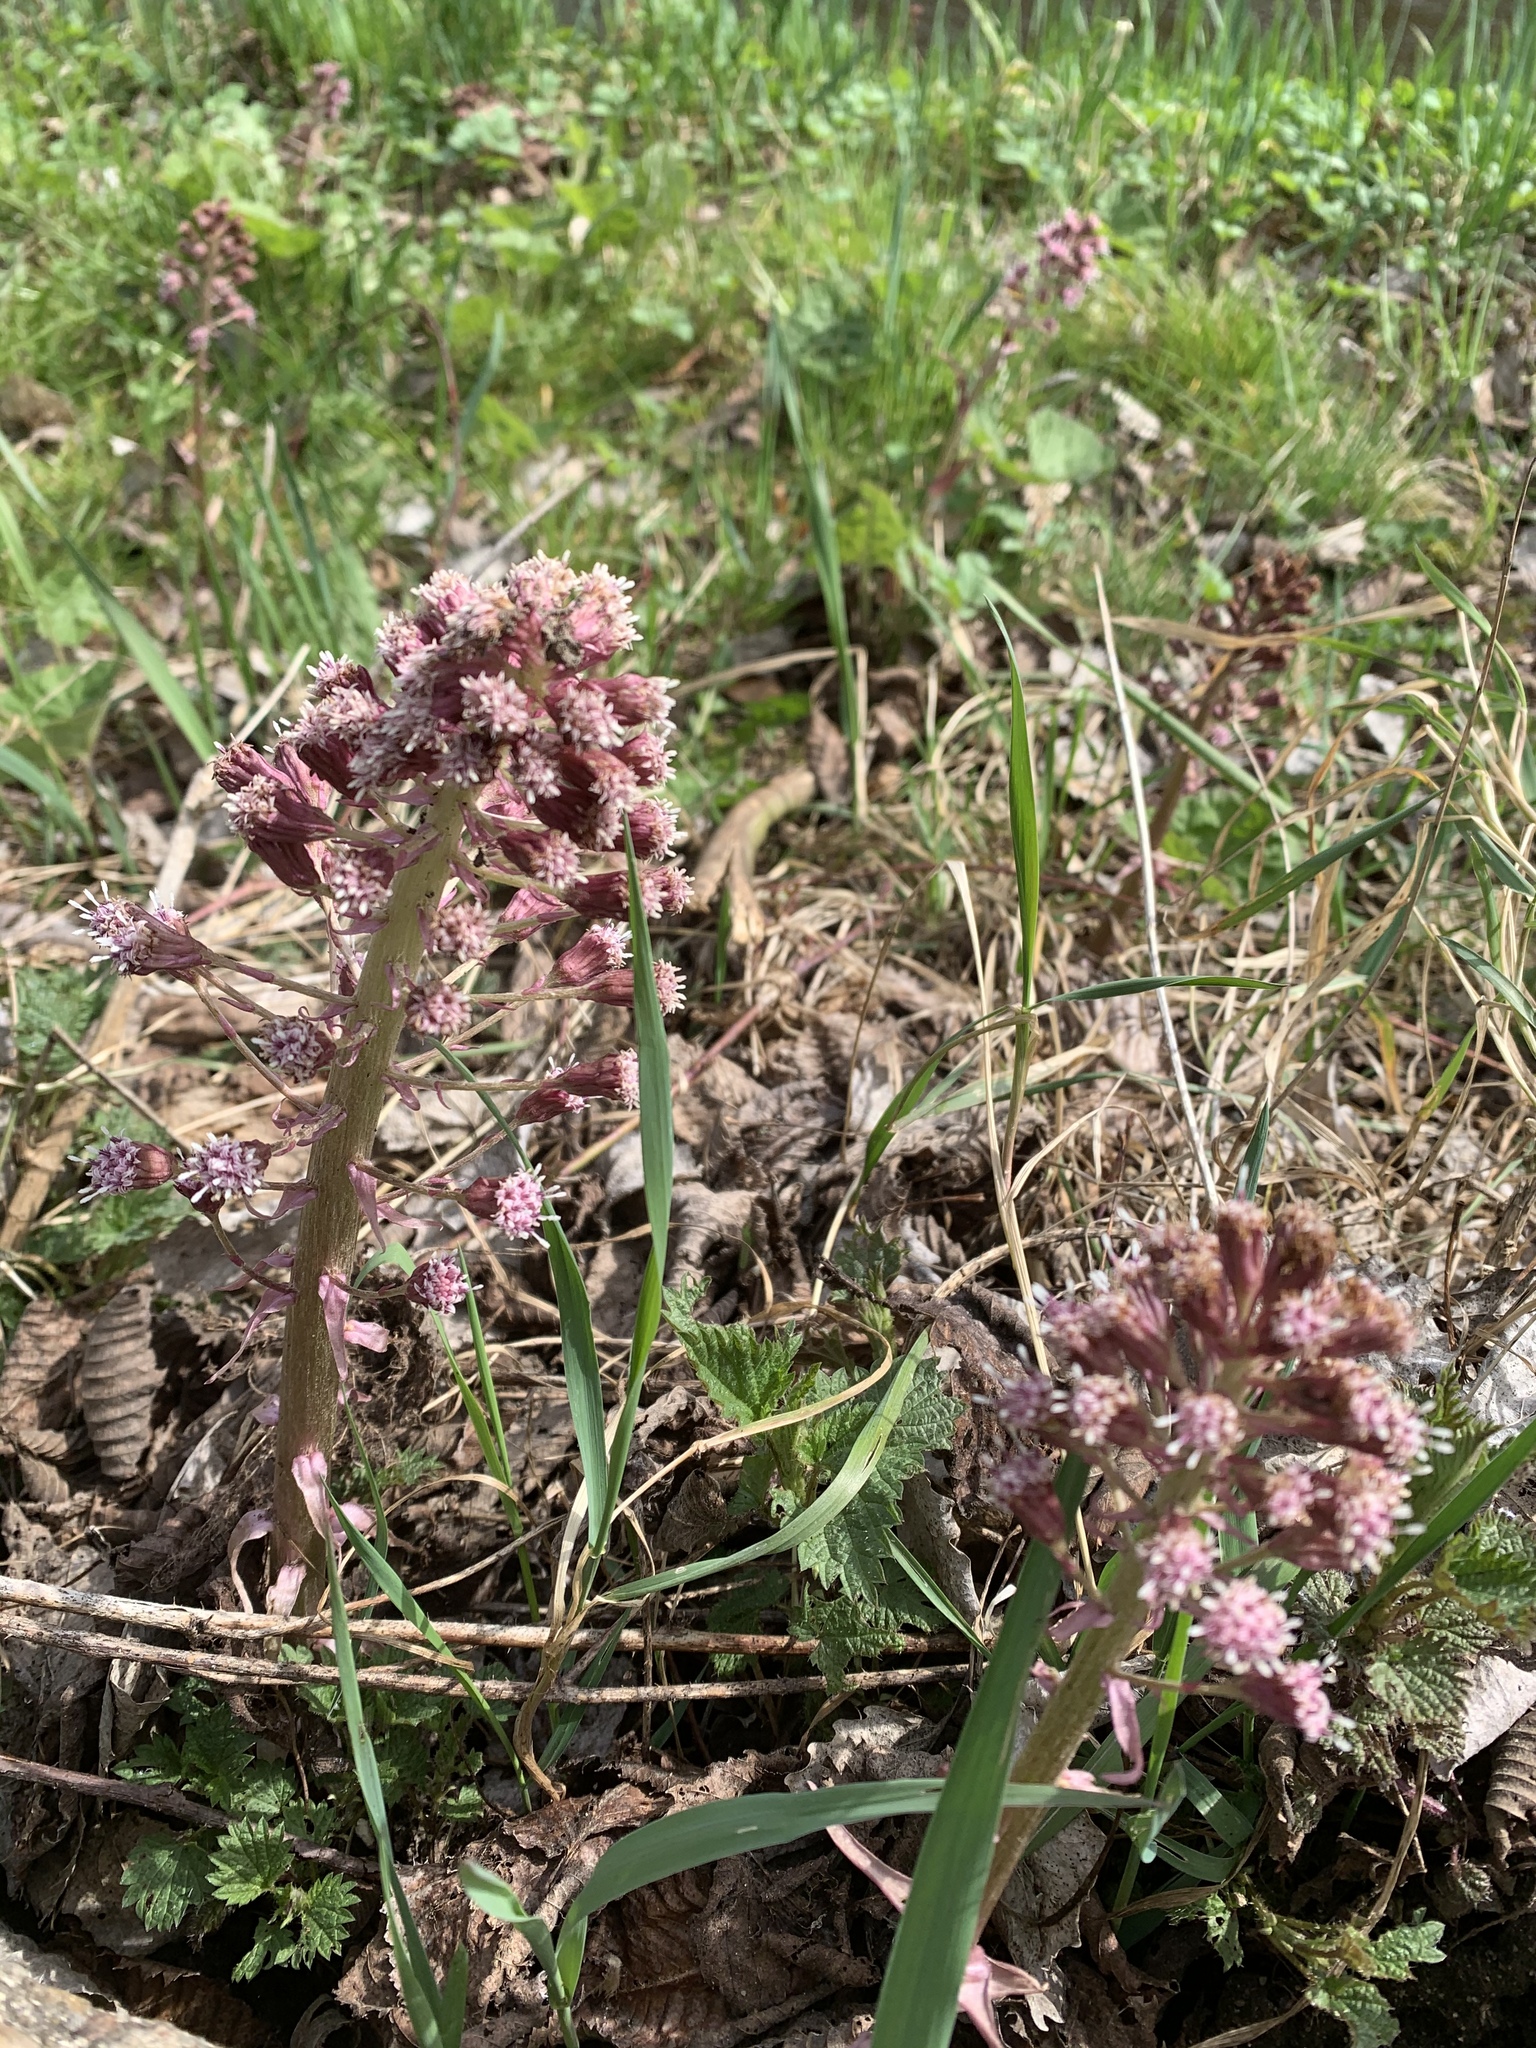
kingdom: Plantae
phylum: Tracheophyta
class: Magnoliopsida
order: Asterales
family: Asteraceae
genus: Petasites
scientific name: Petasites hybridus
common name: Butterbur
